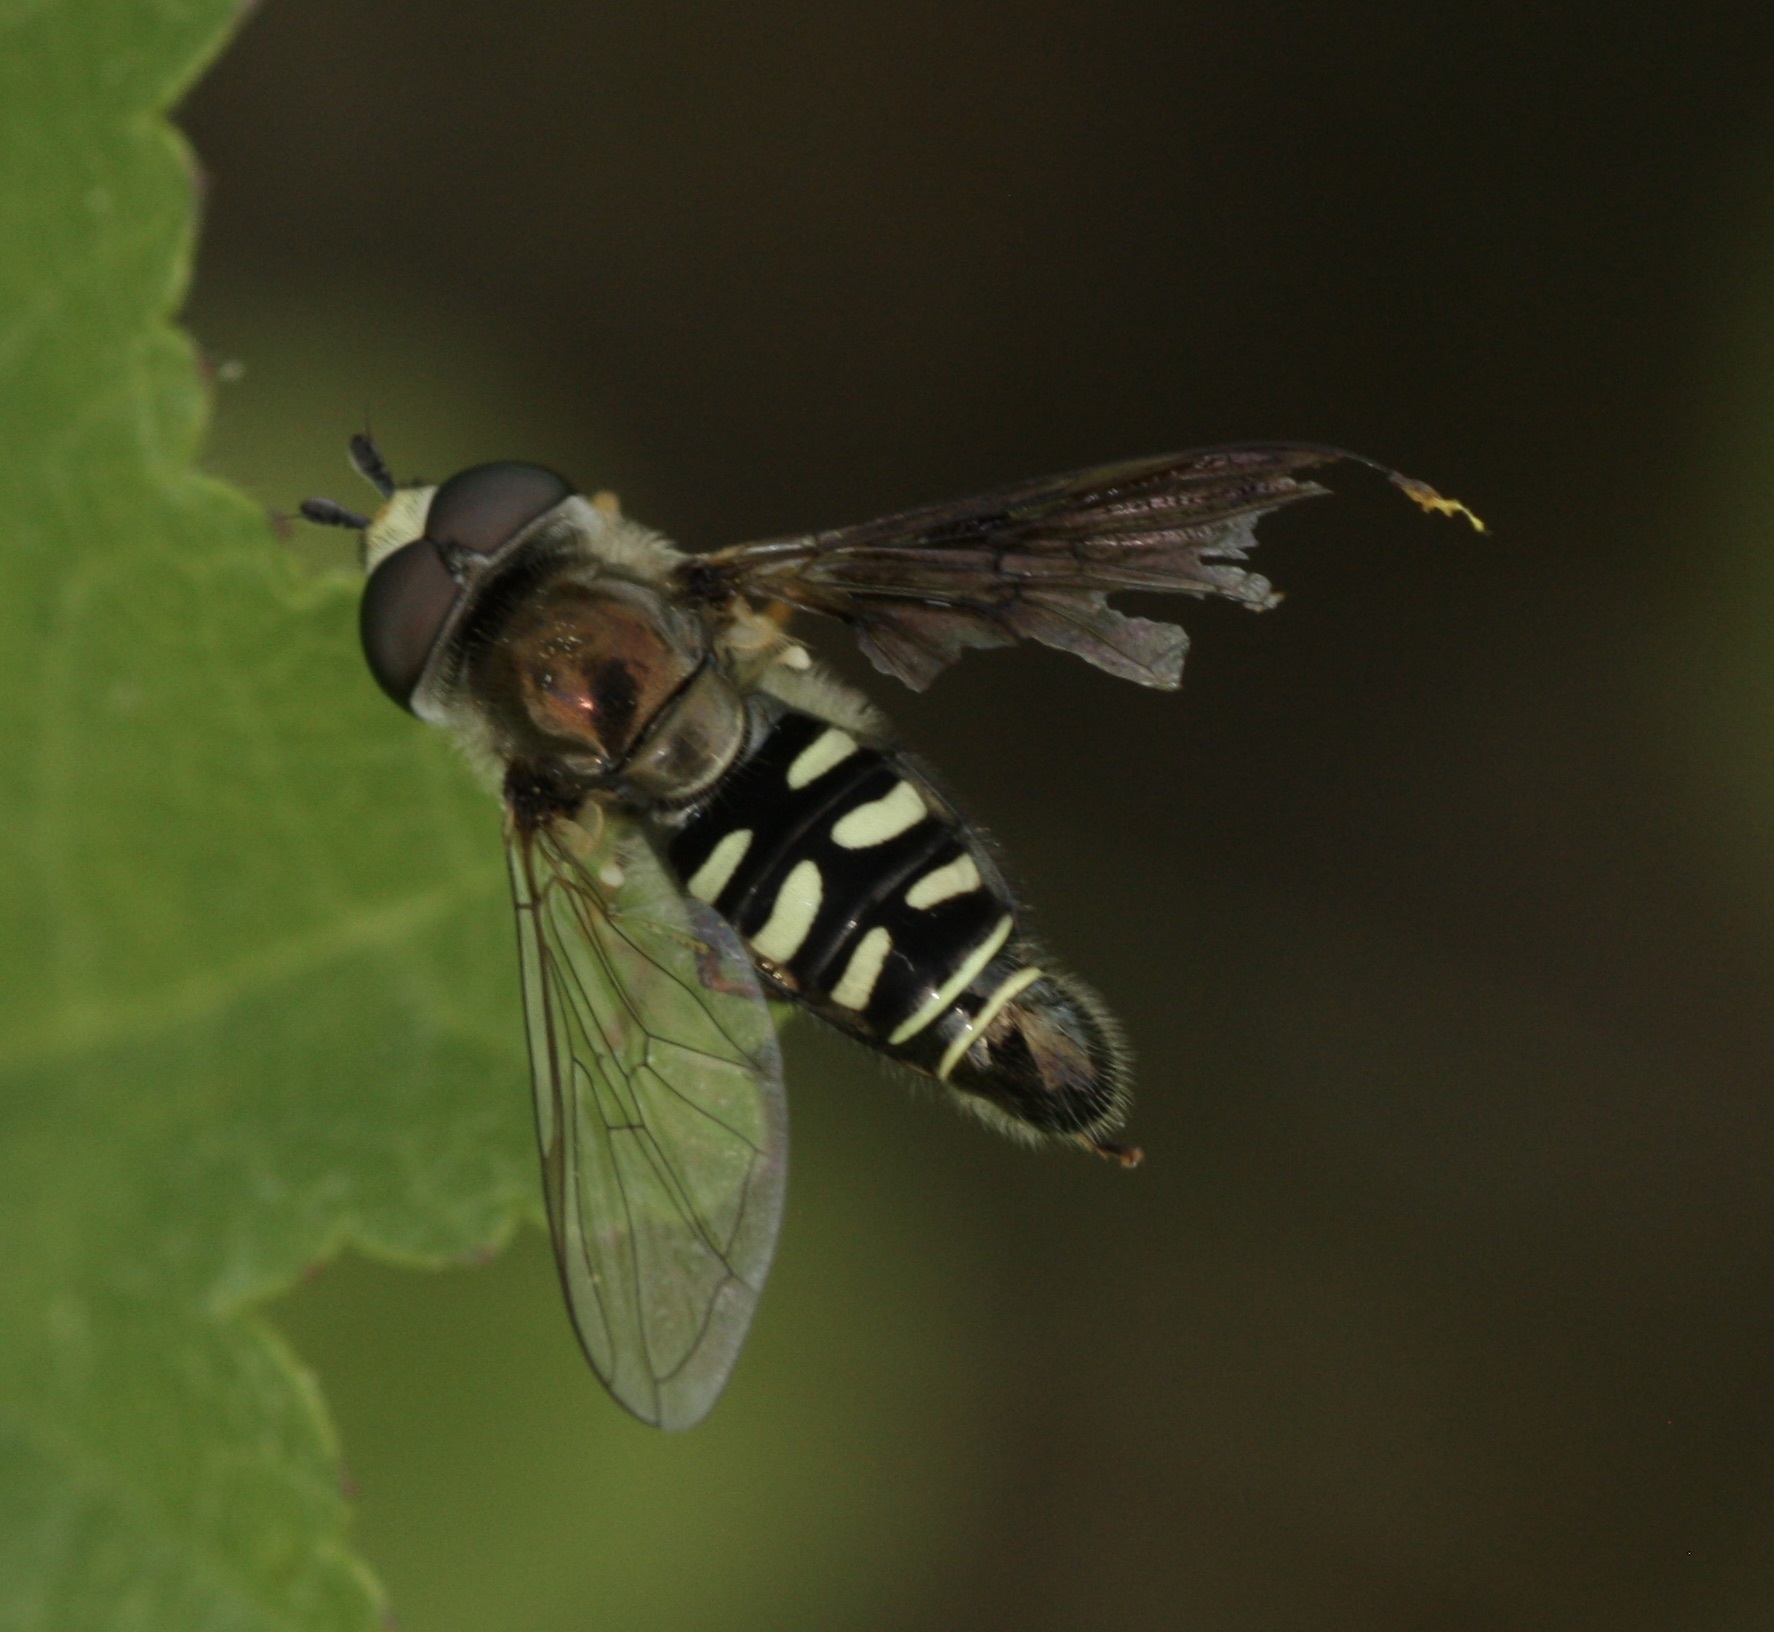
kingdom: Animalia
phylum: Arthropoda
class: Insecta
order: Diptera
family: Syrphidae
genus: Eupeodes
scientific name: Eupeodes volucris
